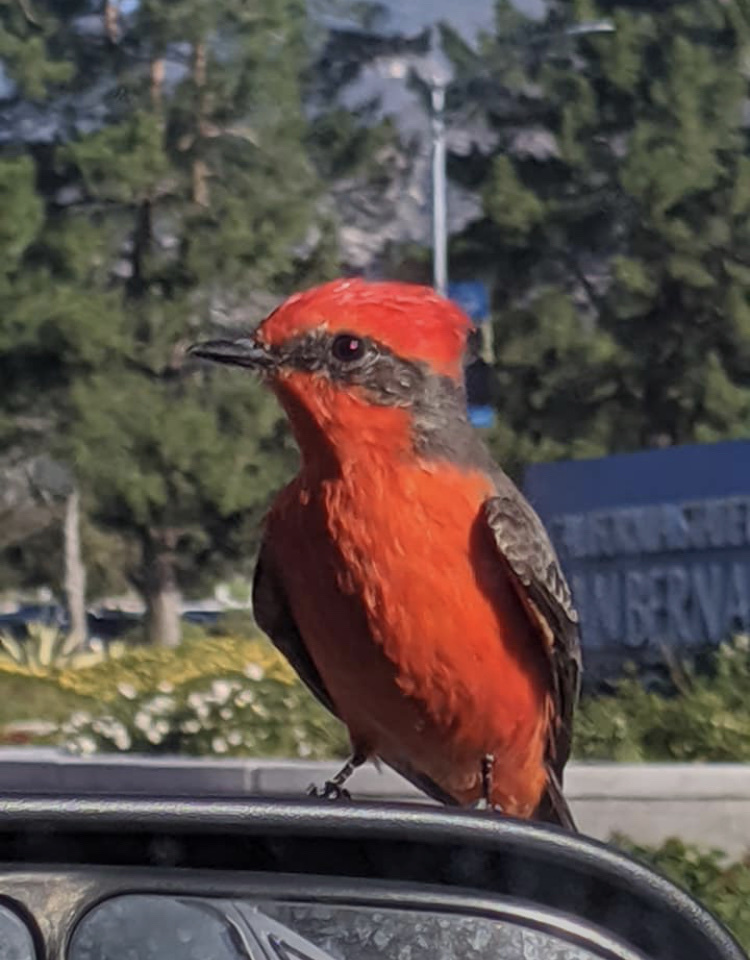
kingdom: Animalia
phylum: Chordata
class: Aves
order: Passeriformes
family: Tyrannidae
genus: Pyrocephalus
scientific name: Pyrocephalus rubinus
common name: Vermilion flycatcher
